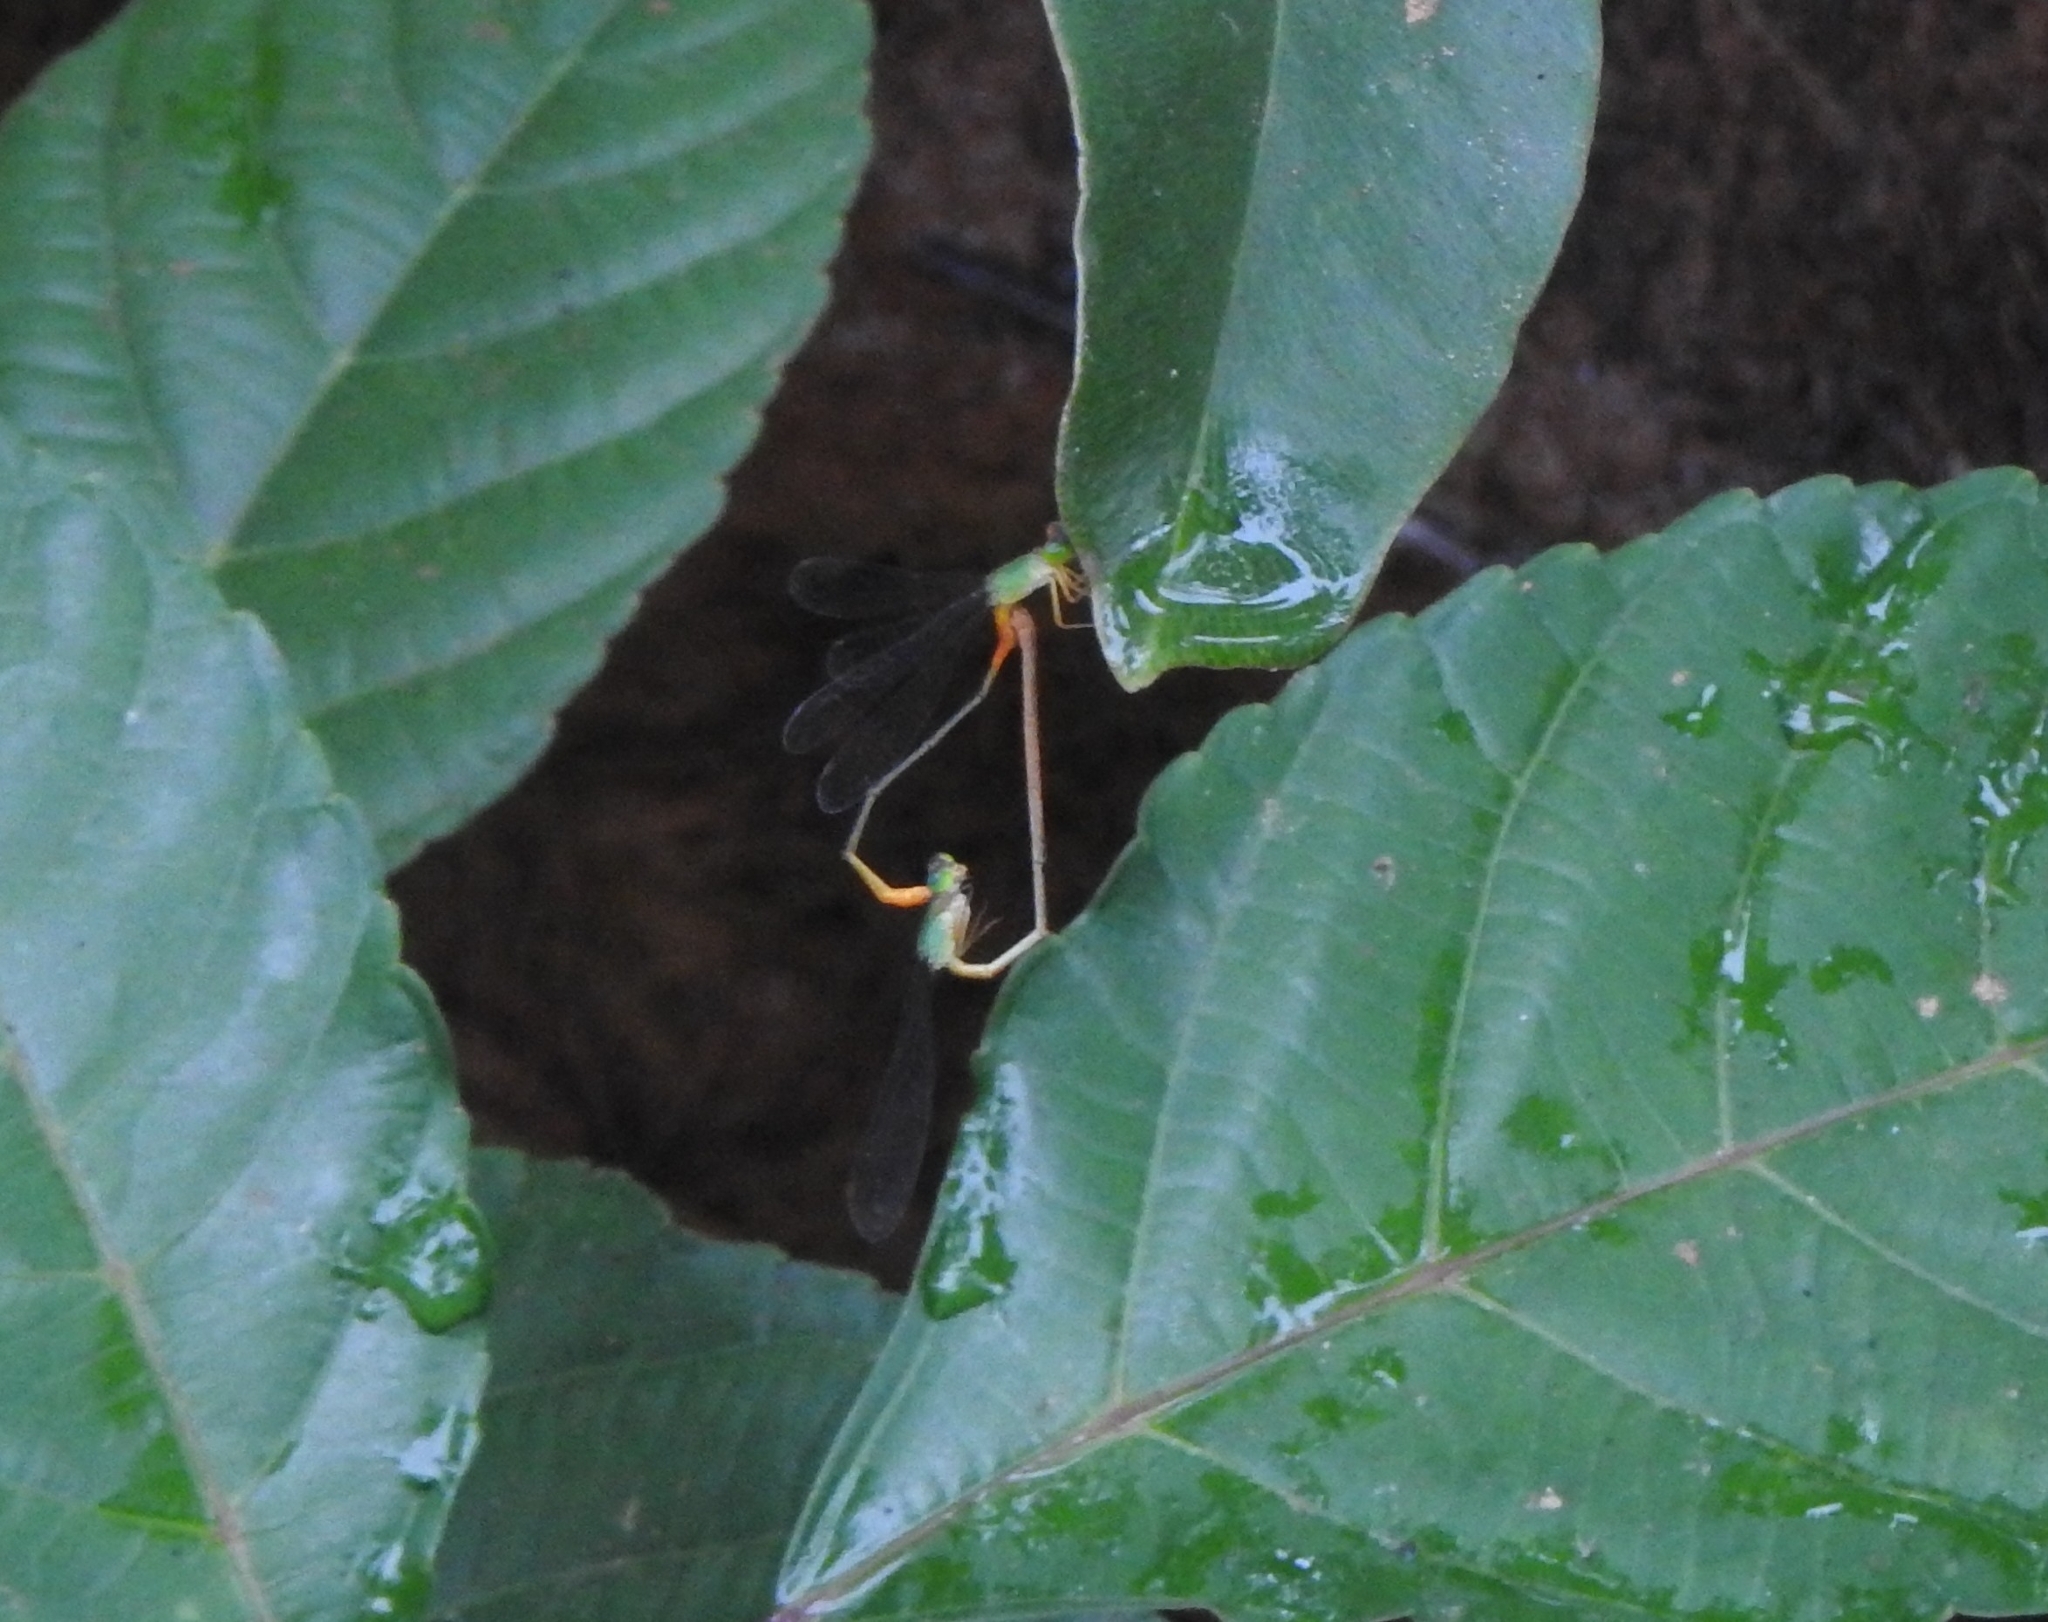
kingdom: Animalia
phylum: Arthropoda
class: Insecta
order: Odonata
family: Coenagrionidae
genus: Ceriagrion
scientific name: Ceriagrion cerinorubellum
